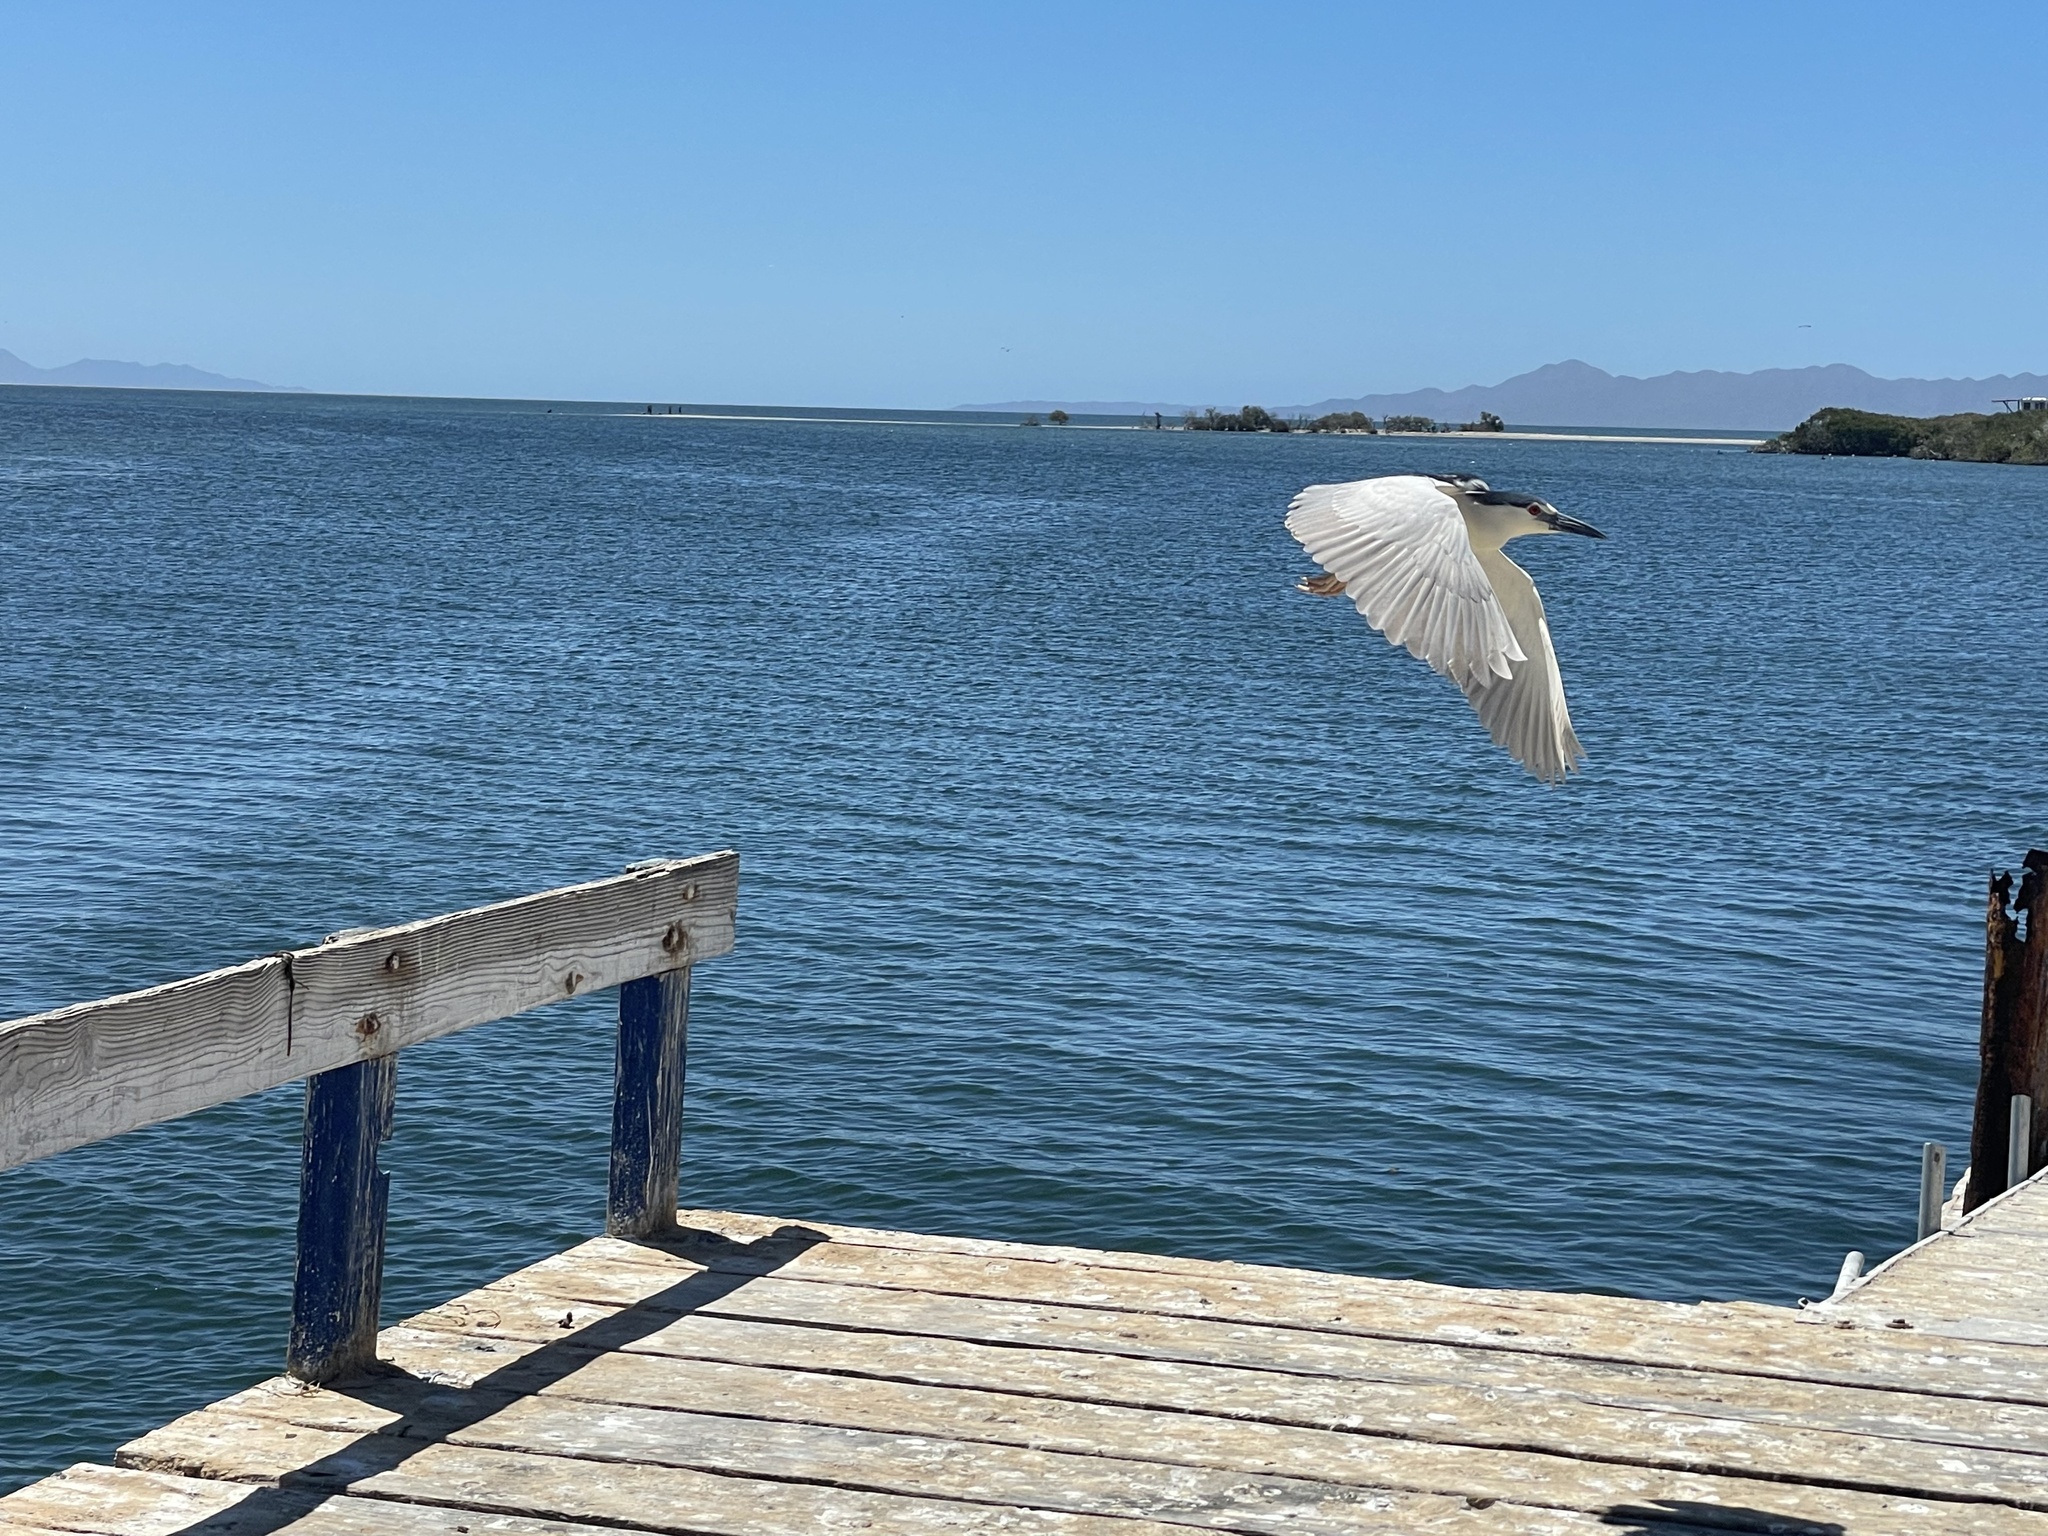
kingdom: Animalia
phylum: Chordata
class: Aves
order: Pelecaniformes
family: Ardeidae
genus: Nycticorax
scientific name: Nycticorax nycticorax
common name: Black-crowned night heron
